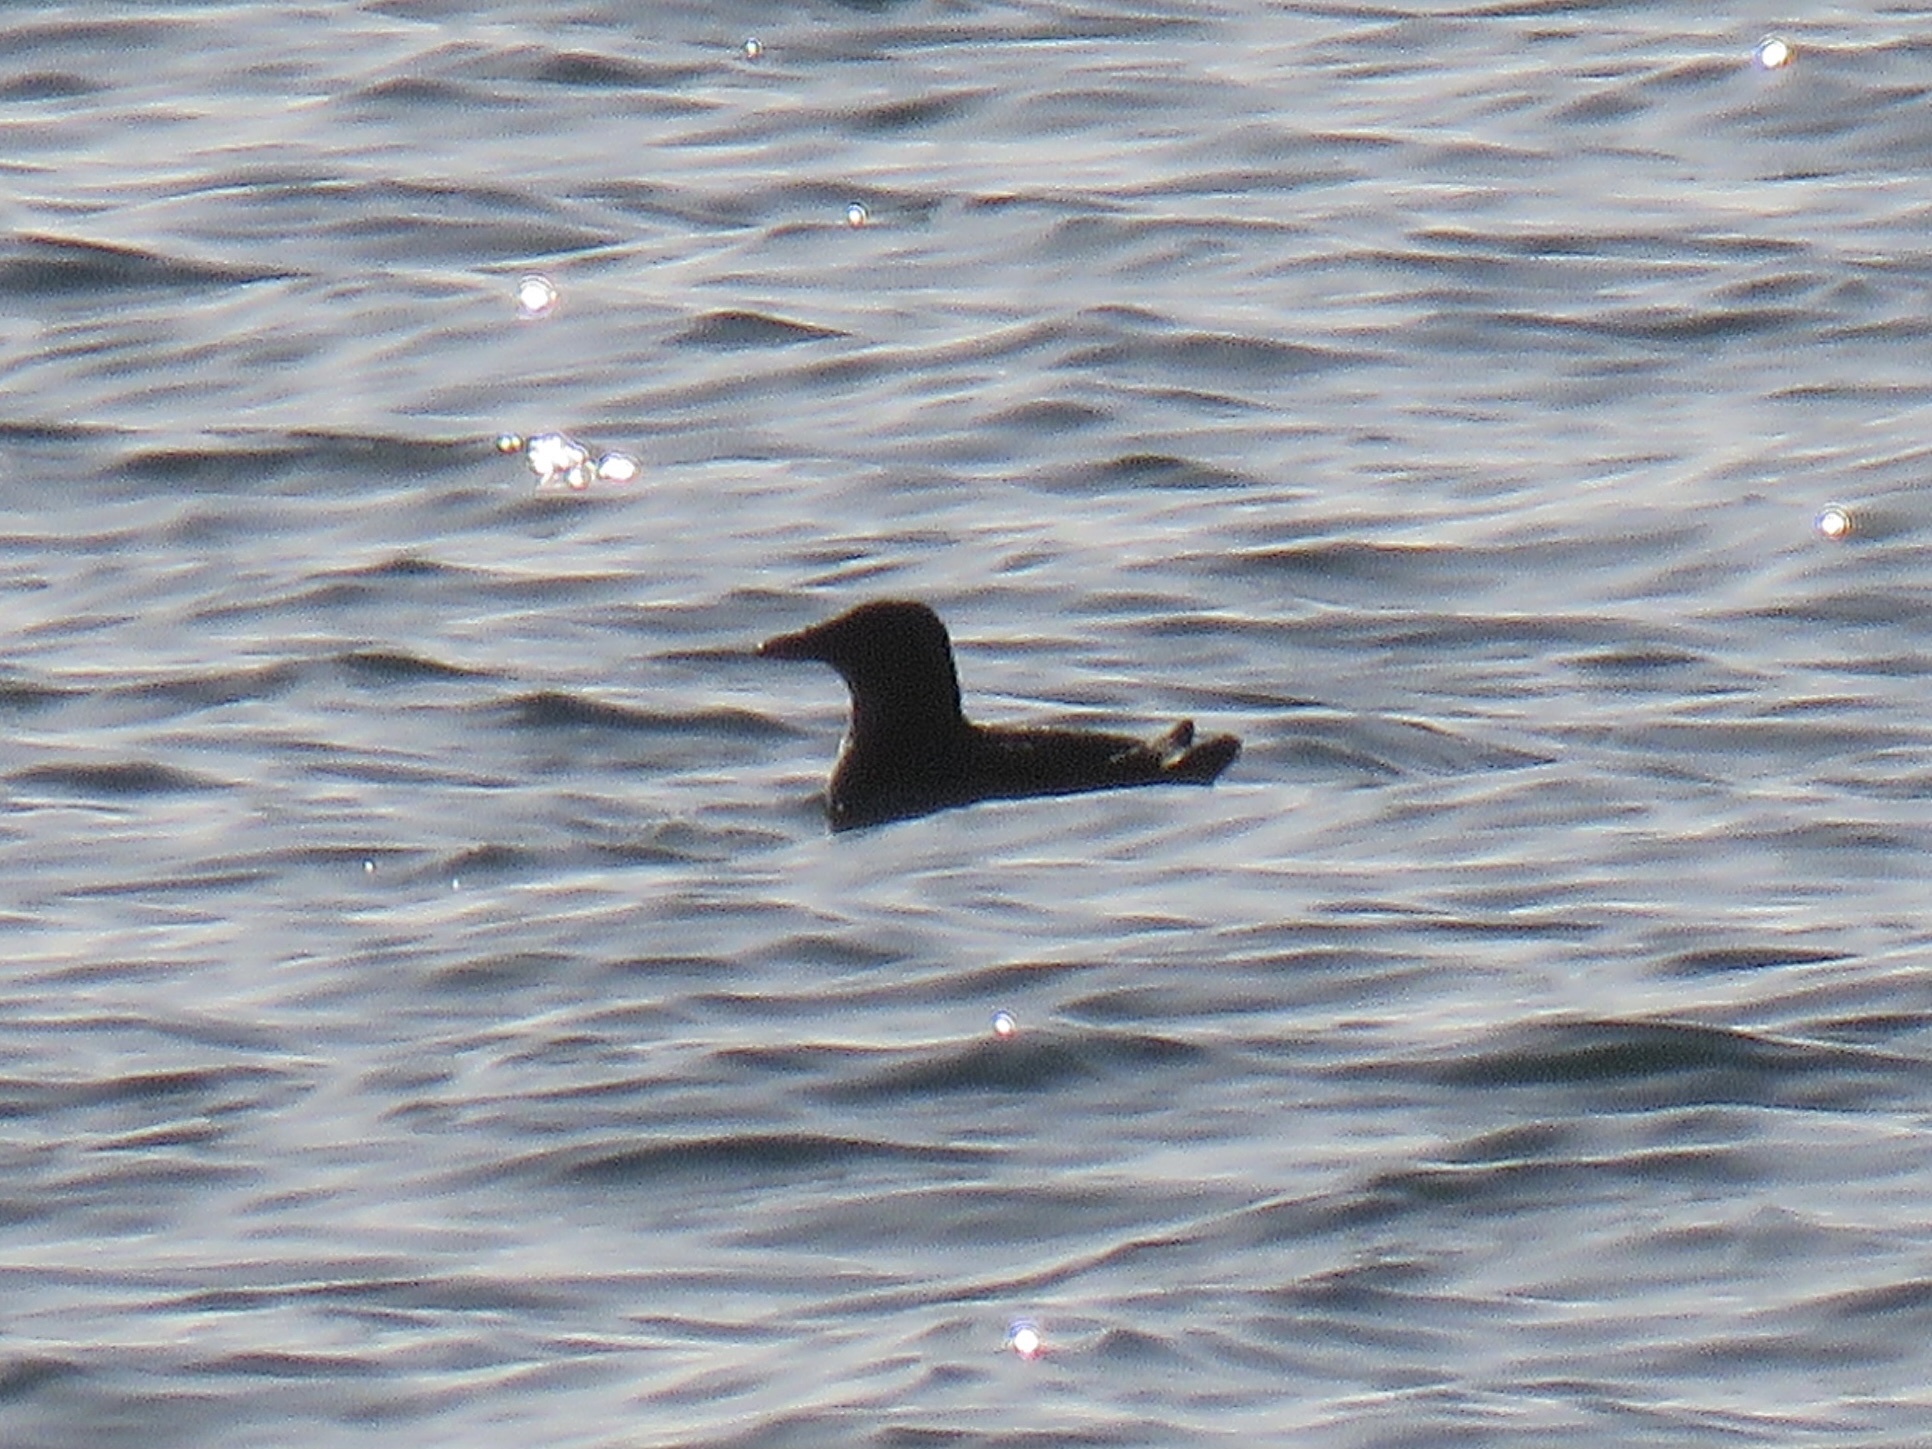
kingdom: Animalia
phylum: Chordata
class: Aves
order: Charadriiformes
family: Alcidae
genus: Cerorhinca
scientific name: Cerorhinca monocerata
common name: Rhinoceros auklet
